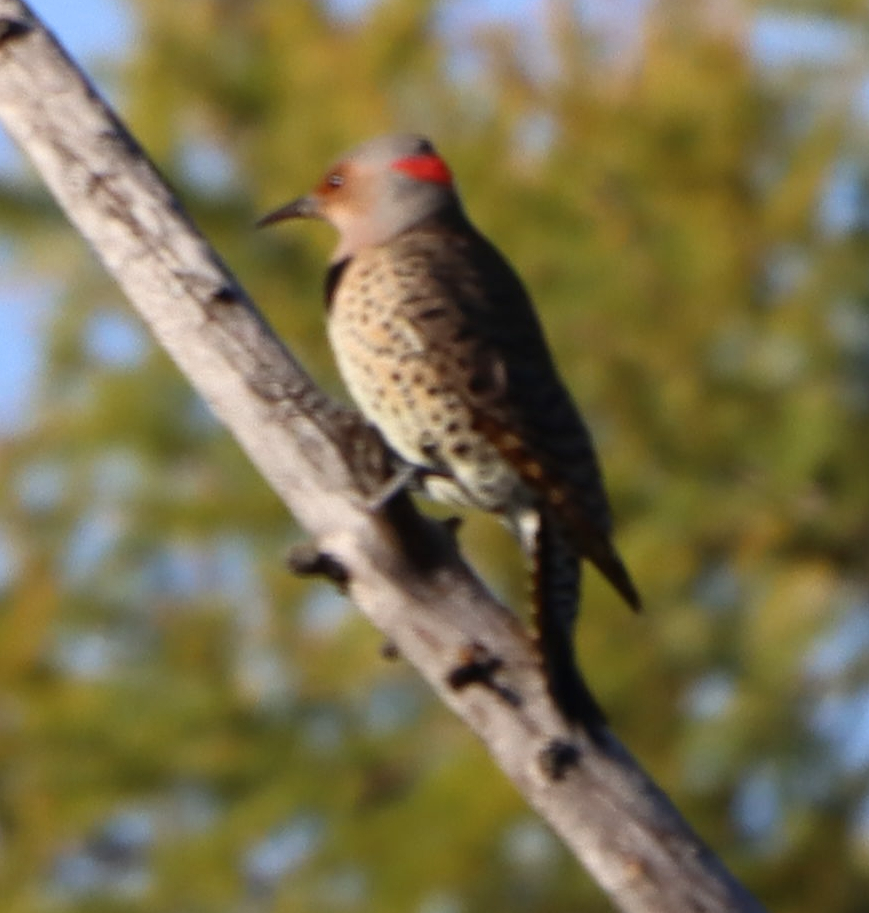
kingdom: Animalia
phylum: Chordata
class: Aves
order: Piciformes
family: Picidae
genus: Colaptes
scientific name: Colaptes auratus
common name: Northern flicker
